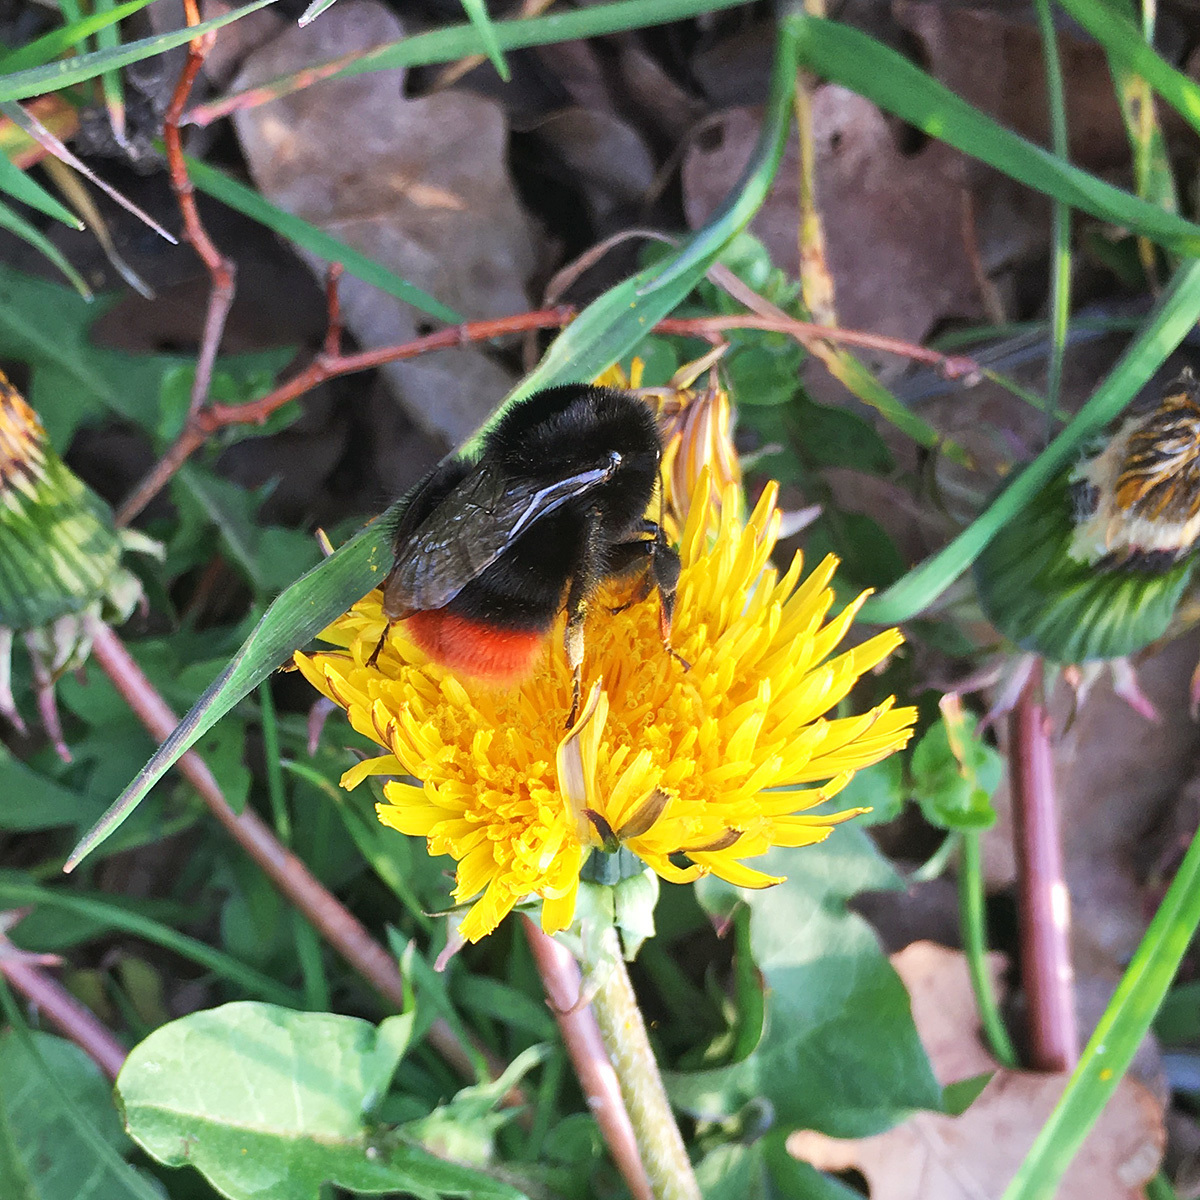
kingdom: Animalia
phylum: Arthropoda
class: Insecta
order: Hymenoptera
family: Apidae
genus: Bombus
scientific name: Bombus lapidarius
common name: Large red-tailed humble-bee
